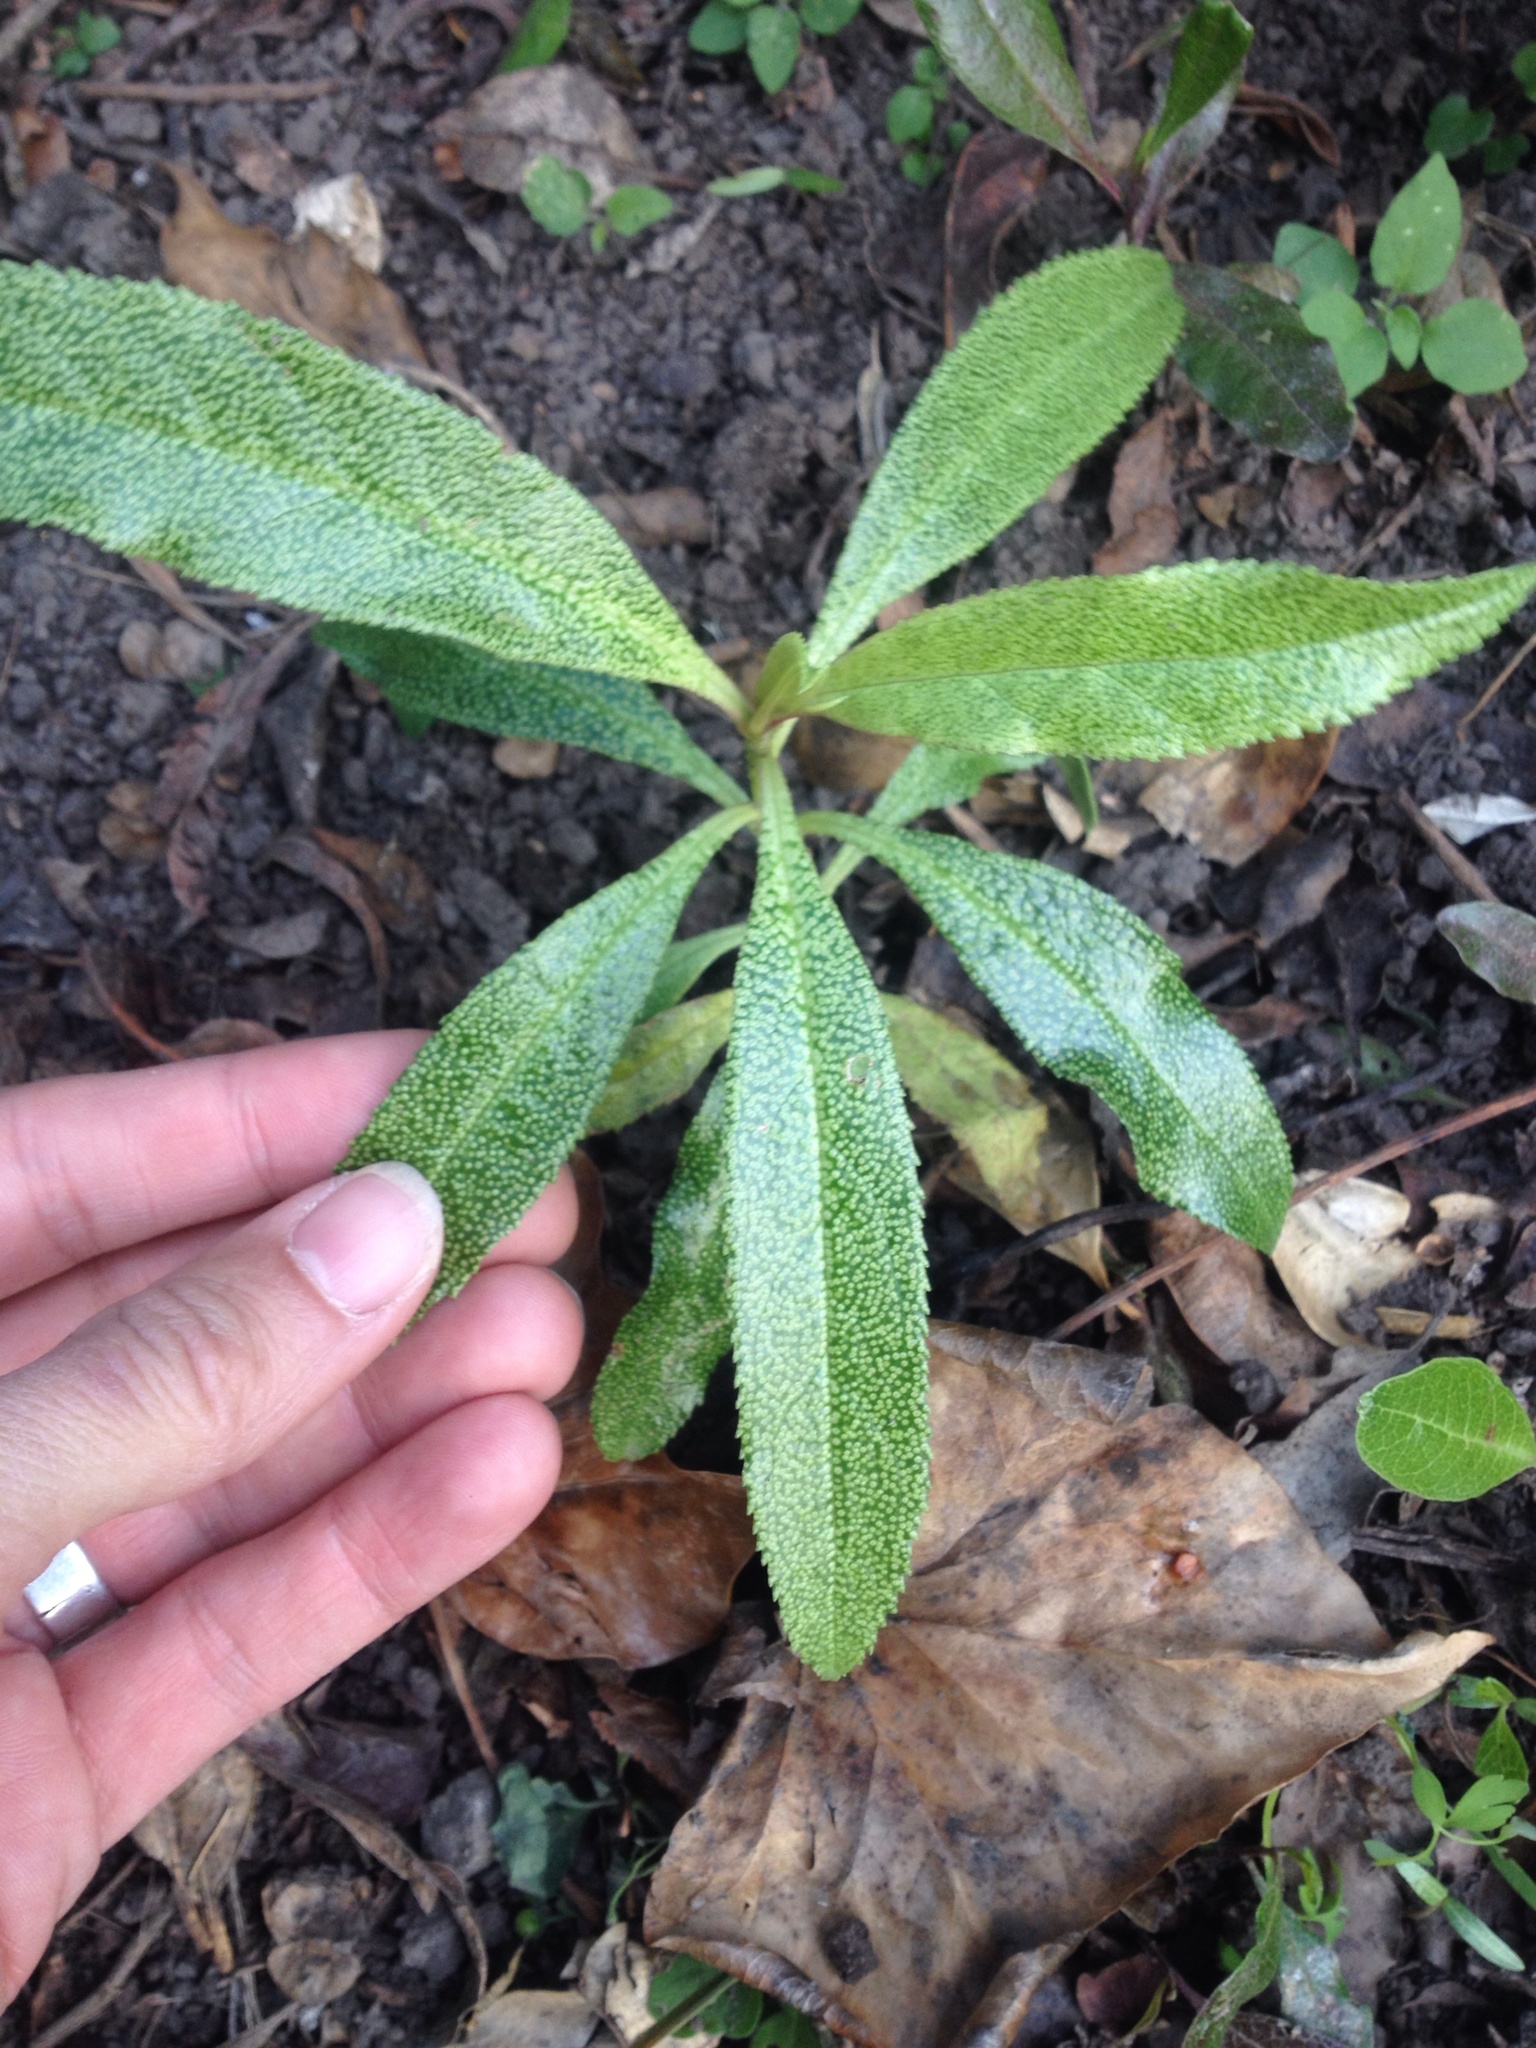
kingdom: Plantae
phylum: Tracheophyta
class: Magnoliopsida
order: Lamiales
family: Scrophulariaceae
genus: Myoporum
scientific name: Myoporum laetum
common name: Ngaio tree
